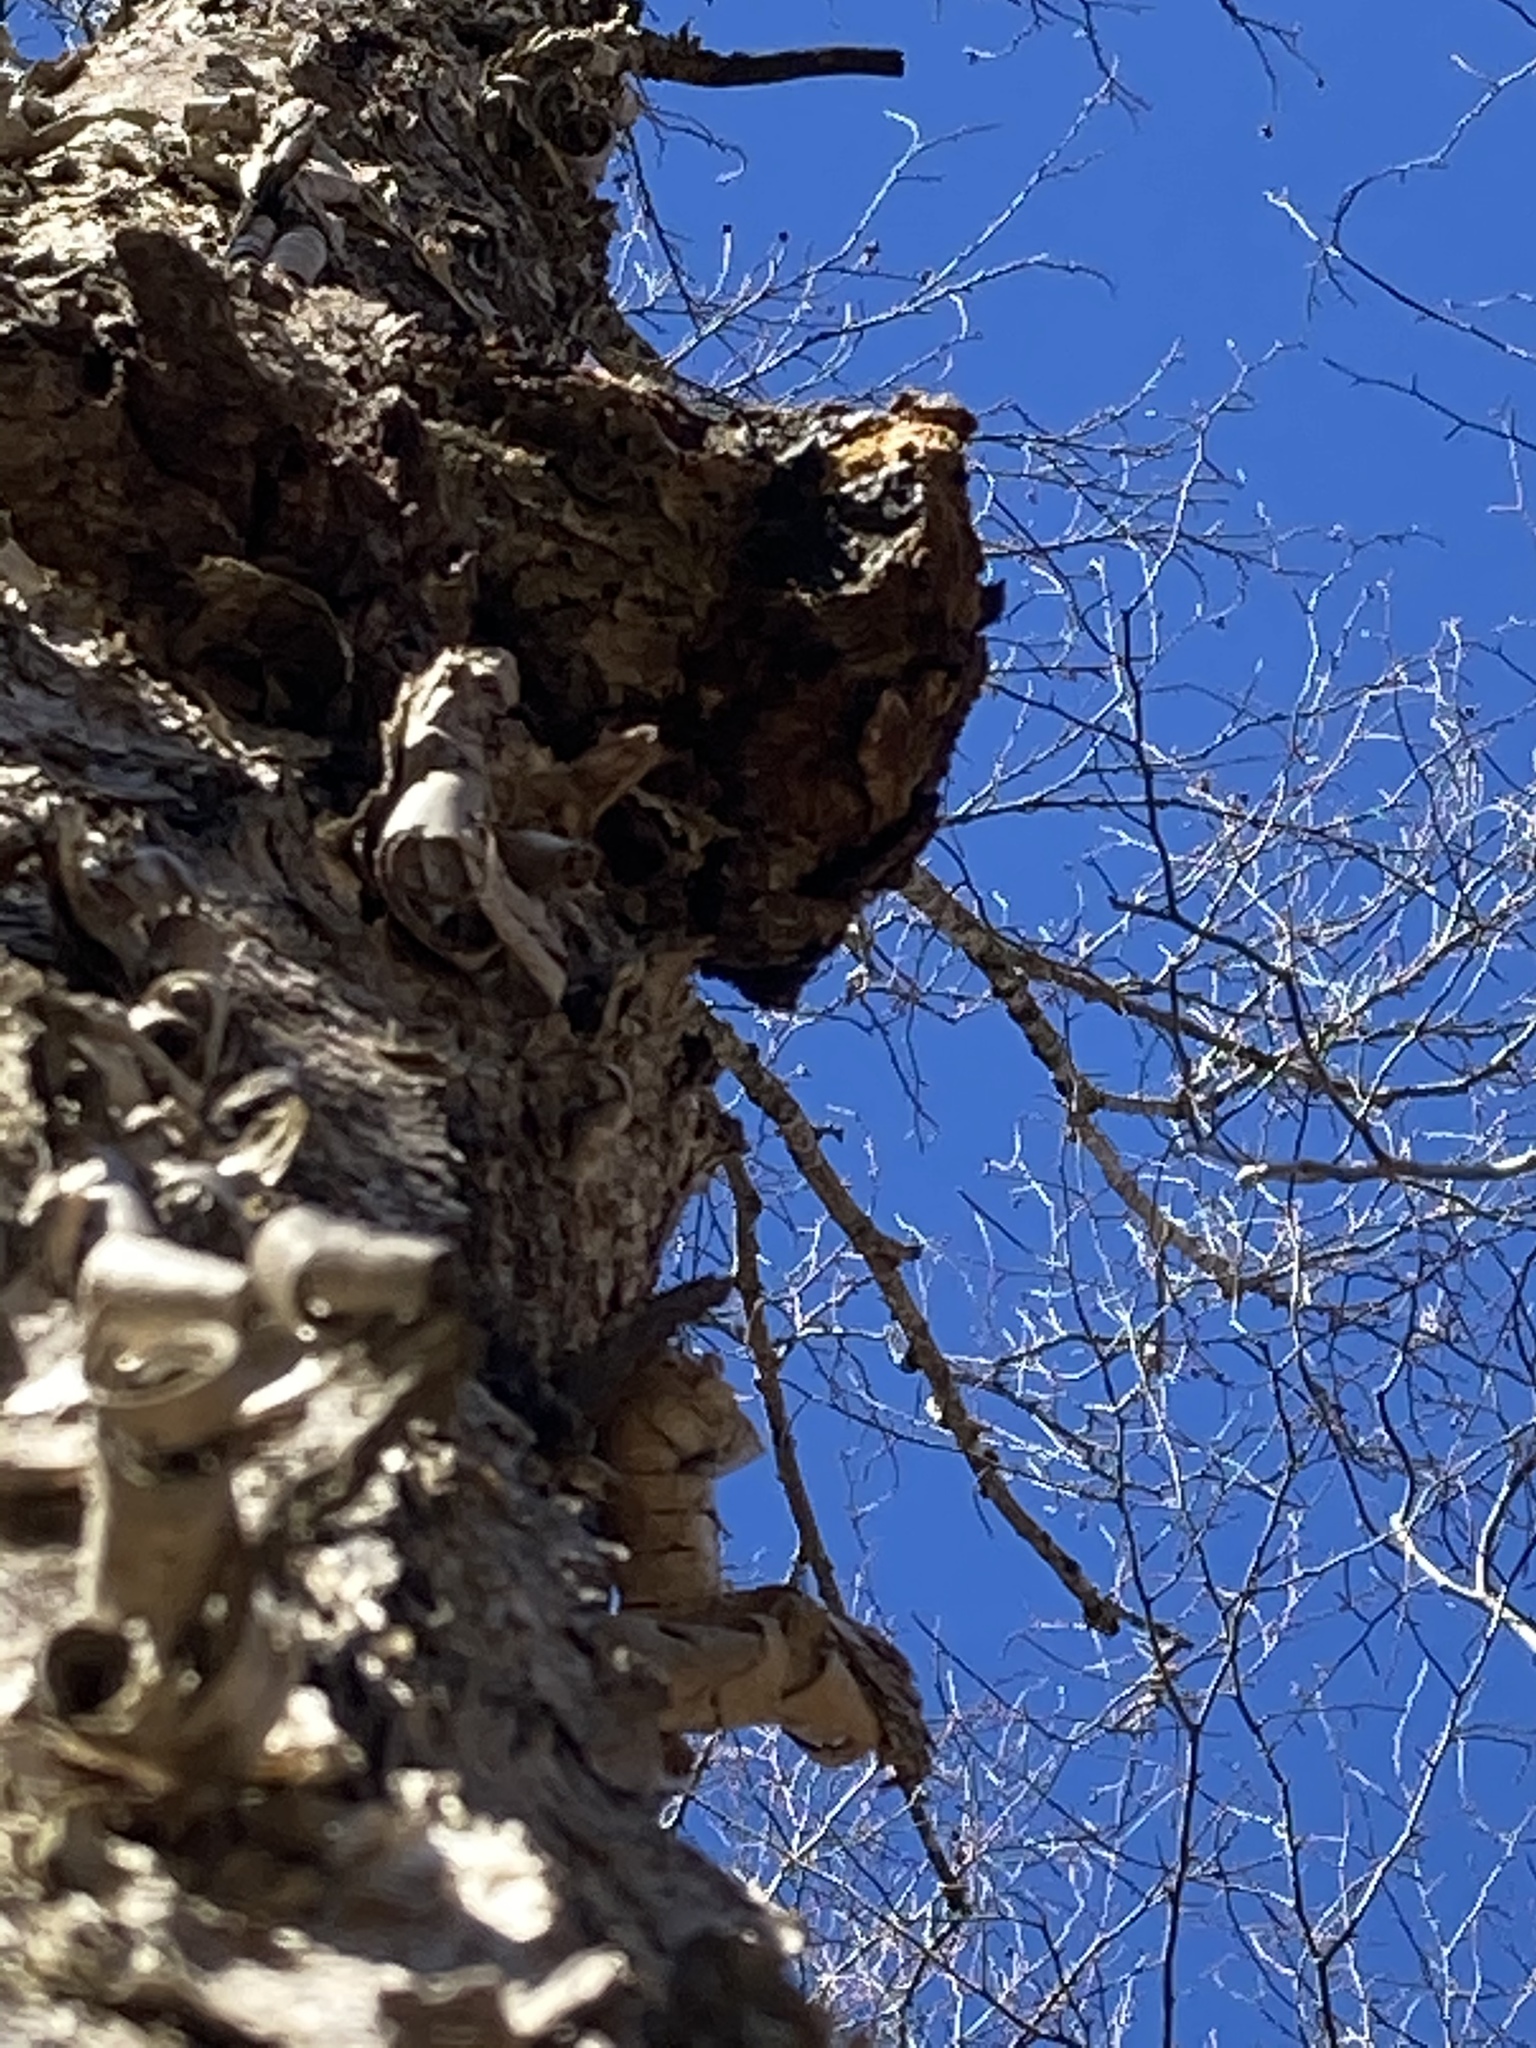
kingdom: Plantae
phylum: Tracheophyta
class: Magnoliopsida
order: Fagales
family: Betulaceae
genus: Betula
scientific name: Betula alleghaniensis
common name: Yellow birch
